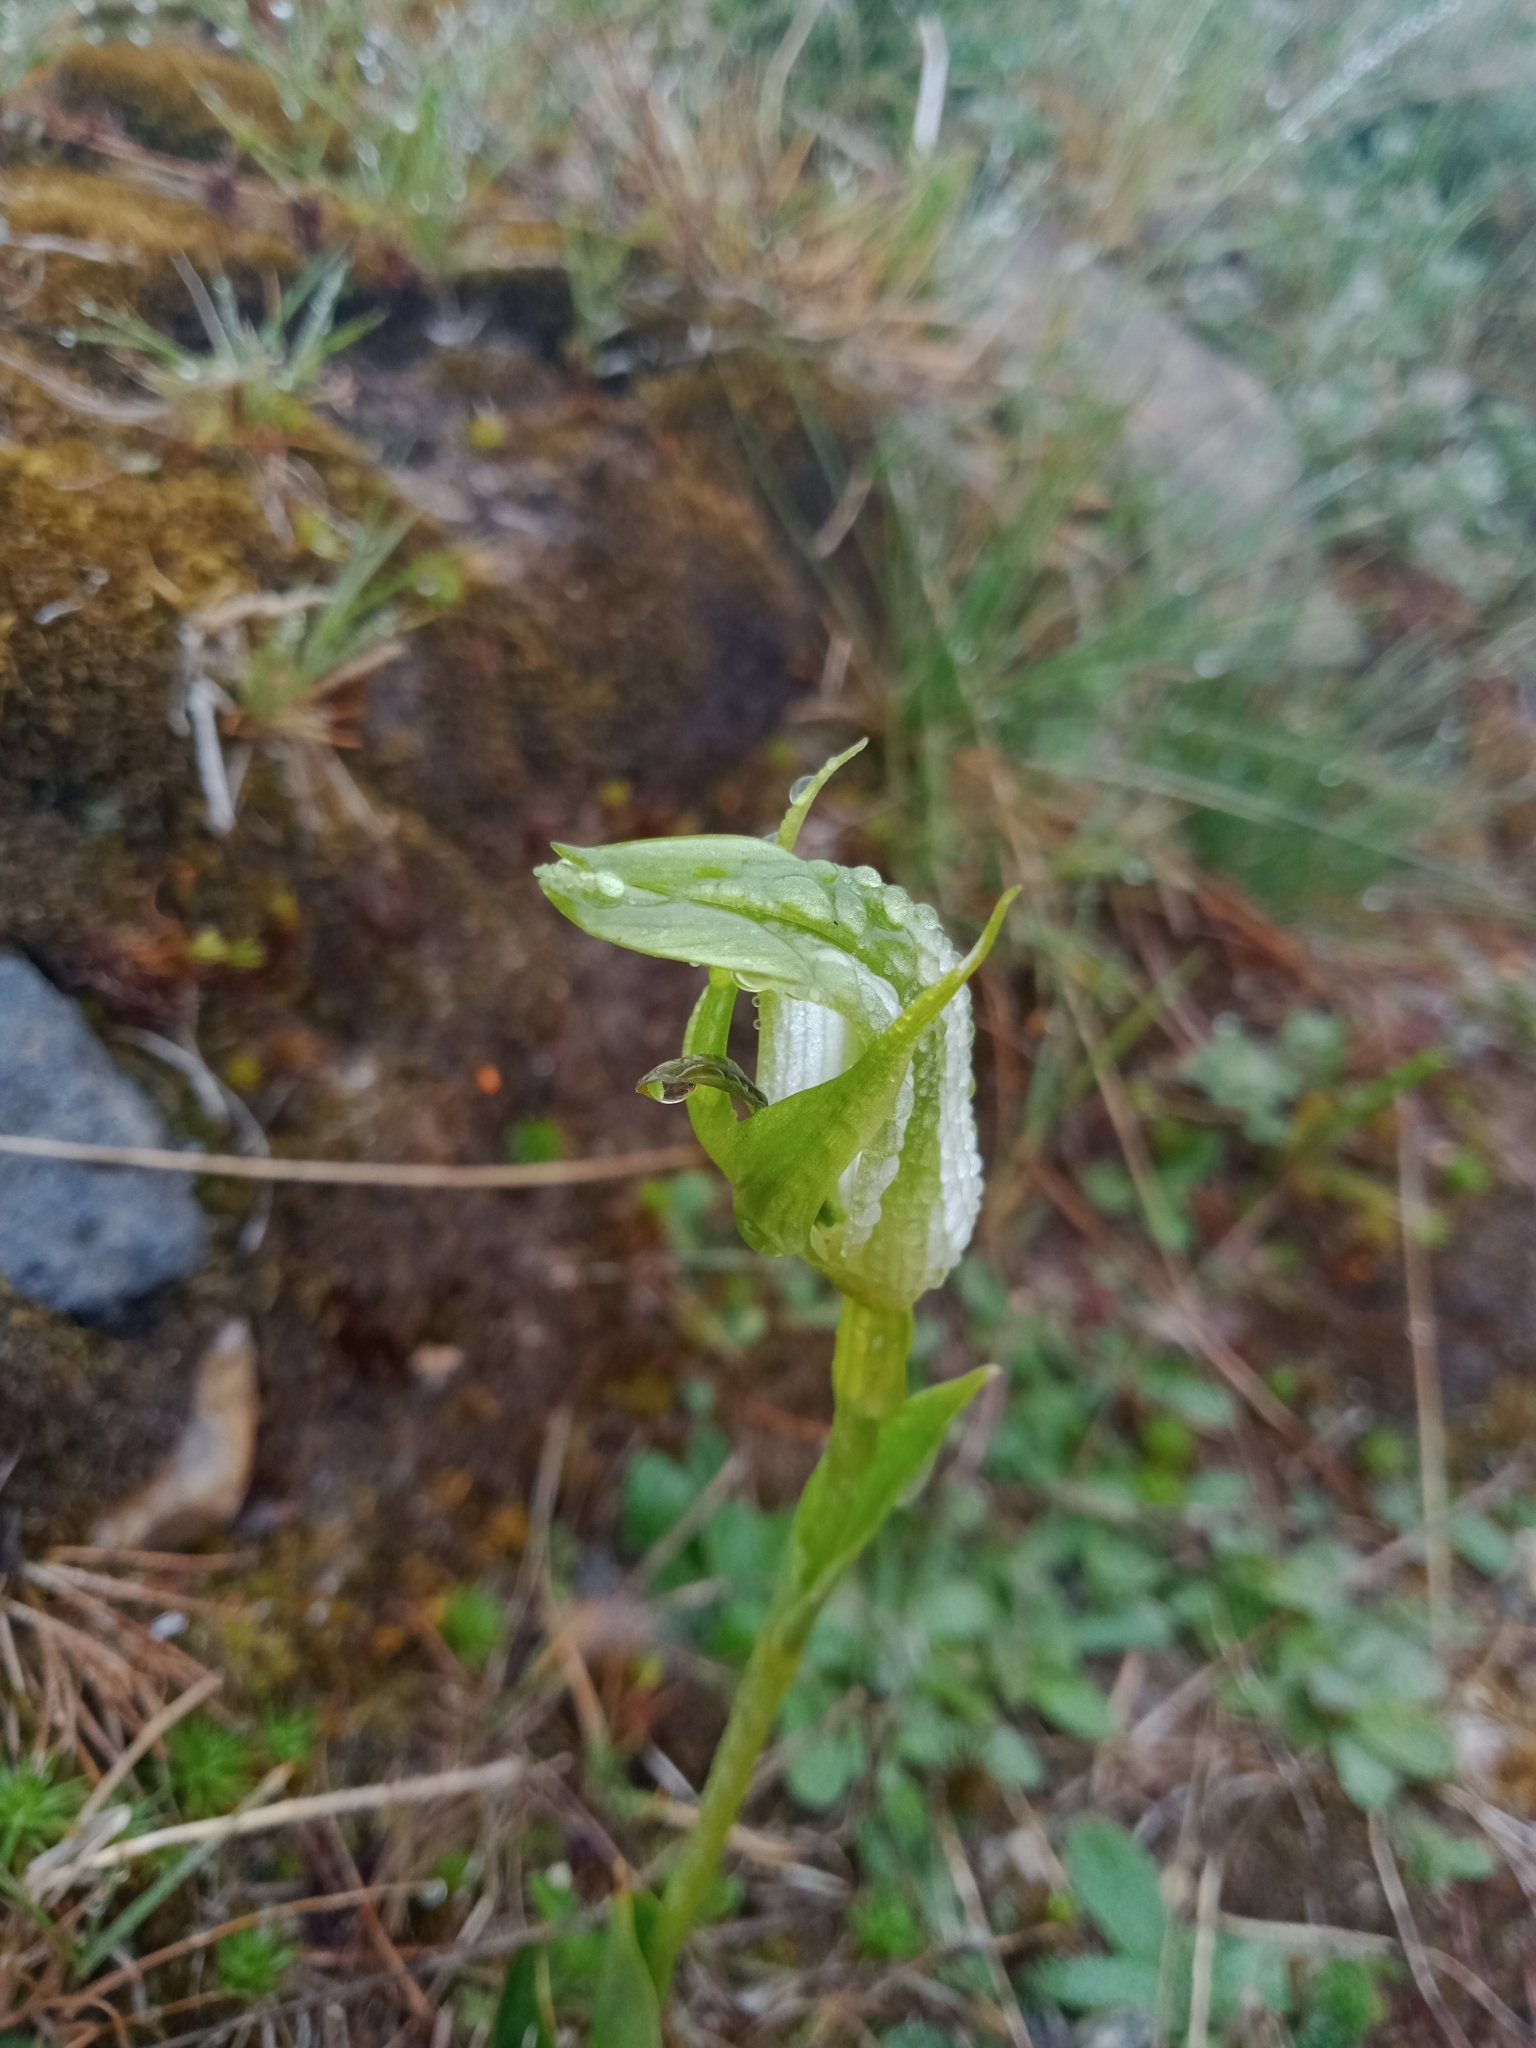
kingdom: Plantae
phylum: Tracheophyta
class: Liliopsida
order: Asparagales
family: Orchidaceae
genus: Pterostylis
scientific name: Pterostylis monticola
